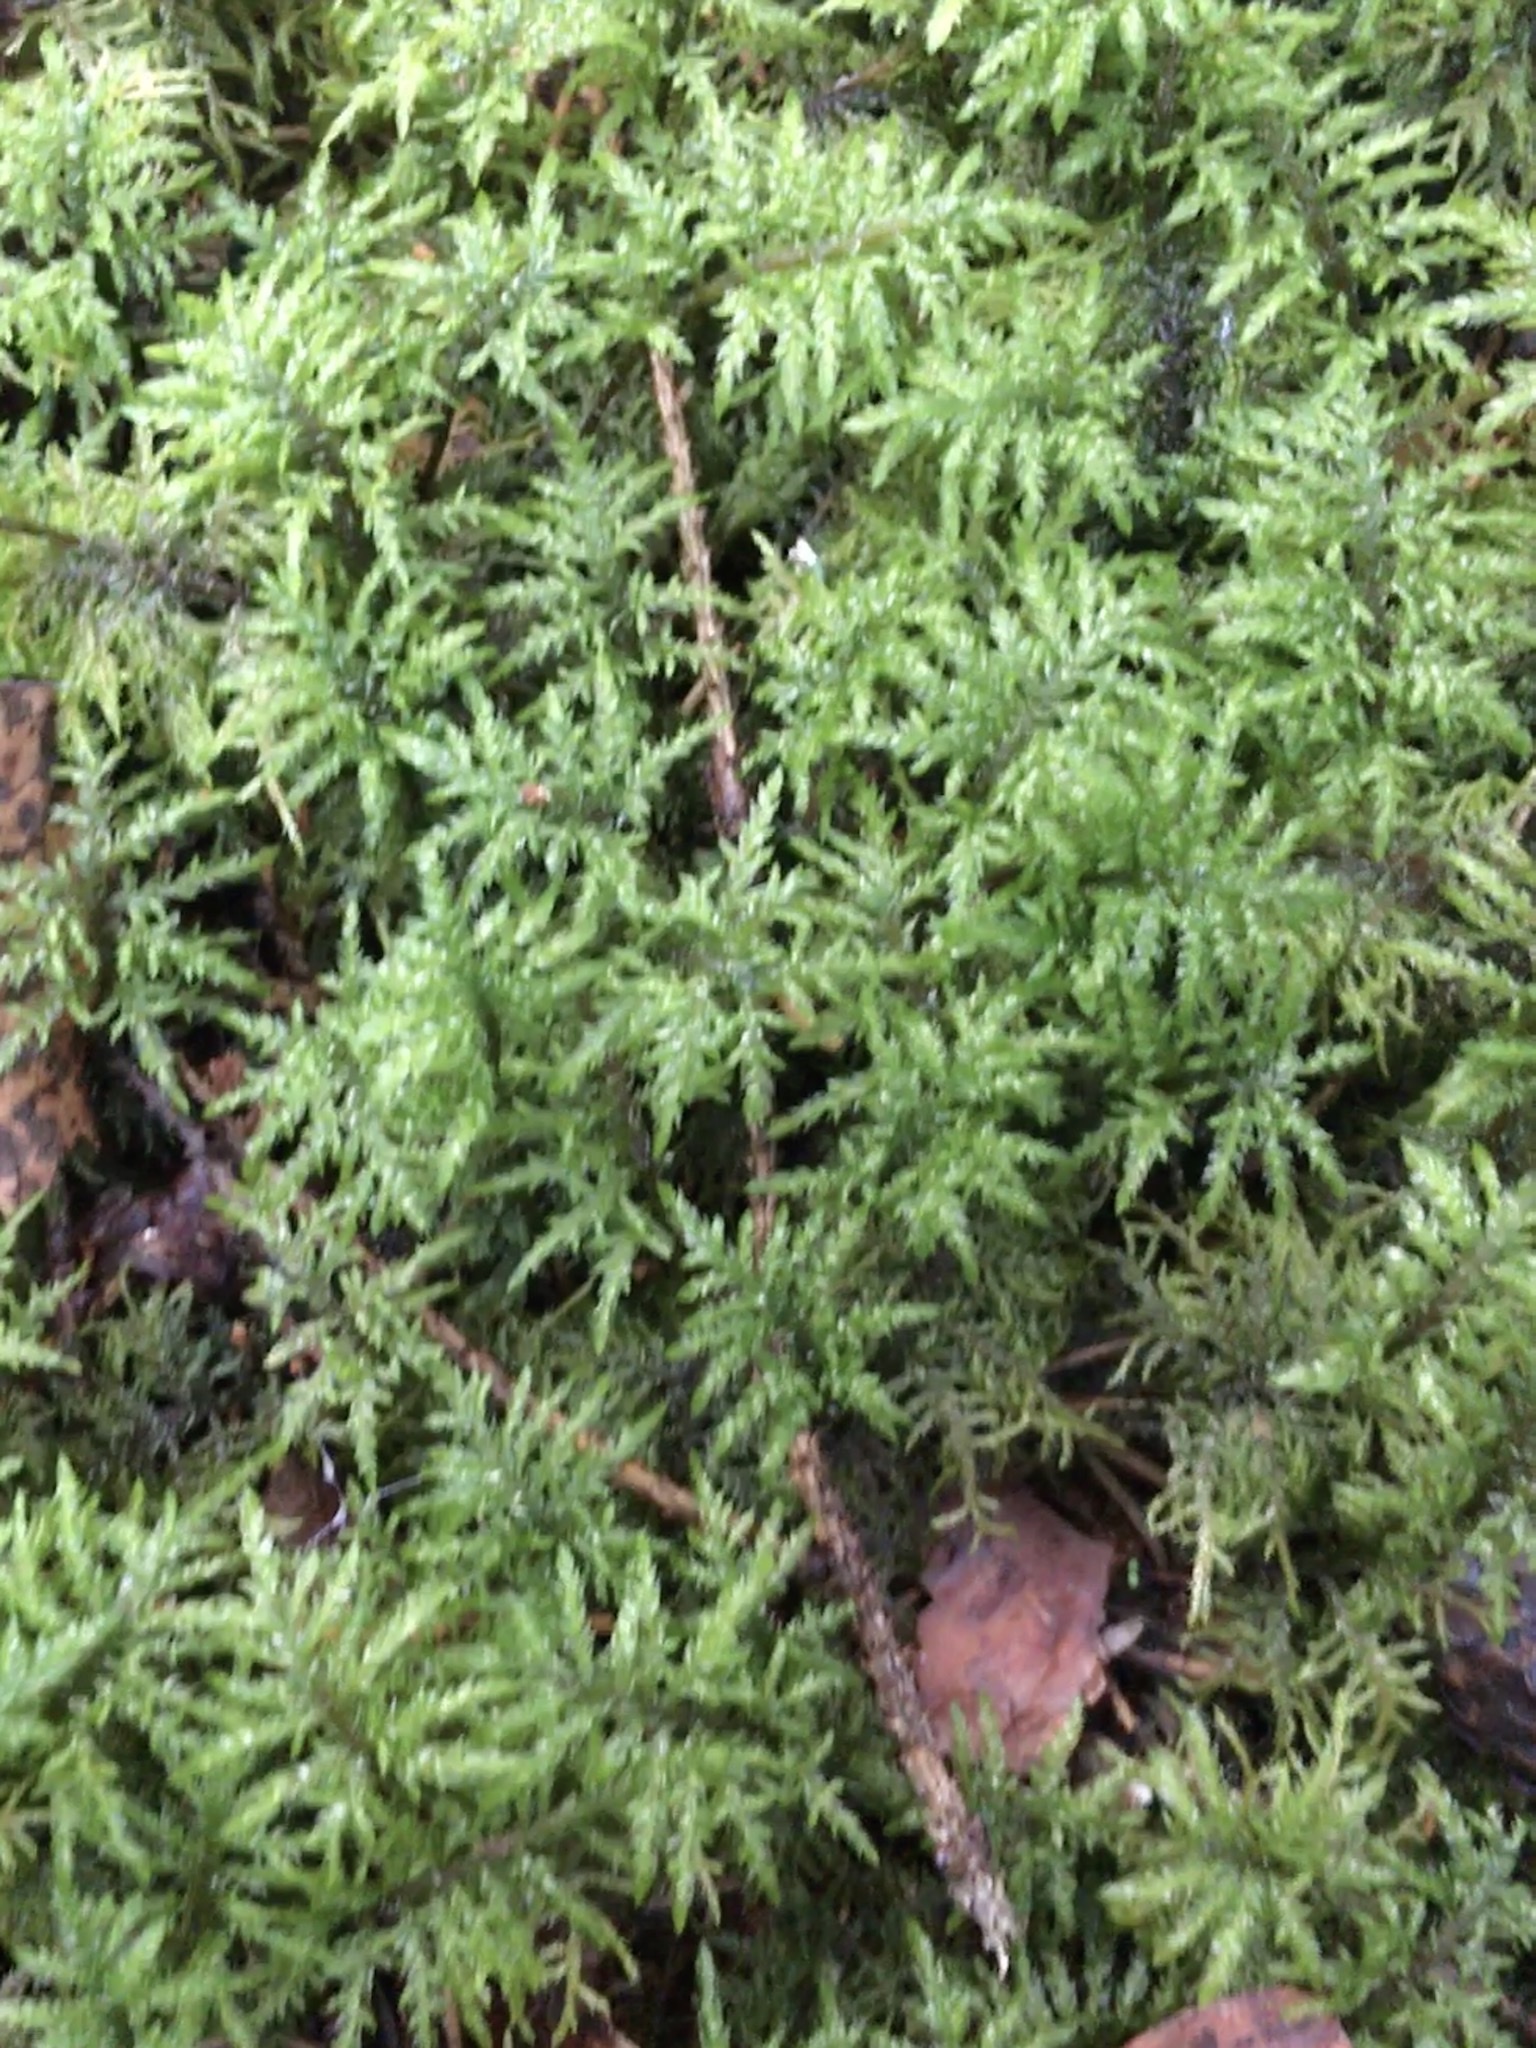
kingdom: Plantae
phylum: Bryophyta
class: Bryopsida
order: Hypnales
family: Hylocomiaceae
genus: Hylocomium
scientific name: Hylocomium splendens
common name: Stairstep moss
